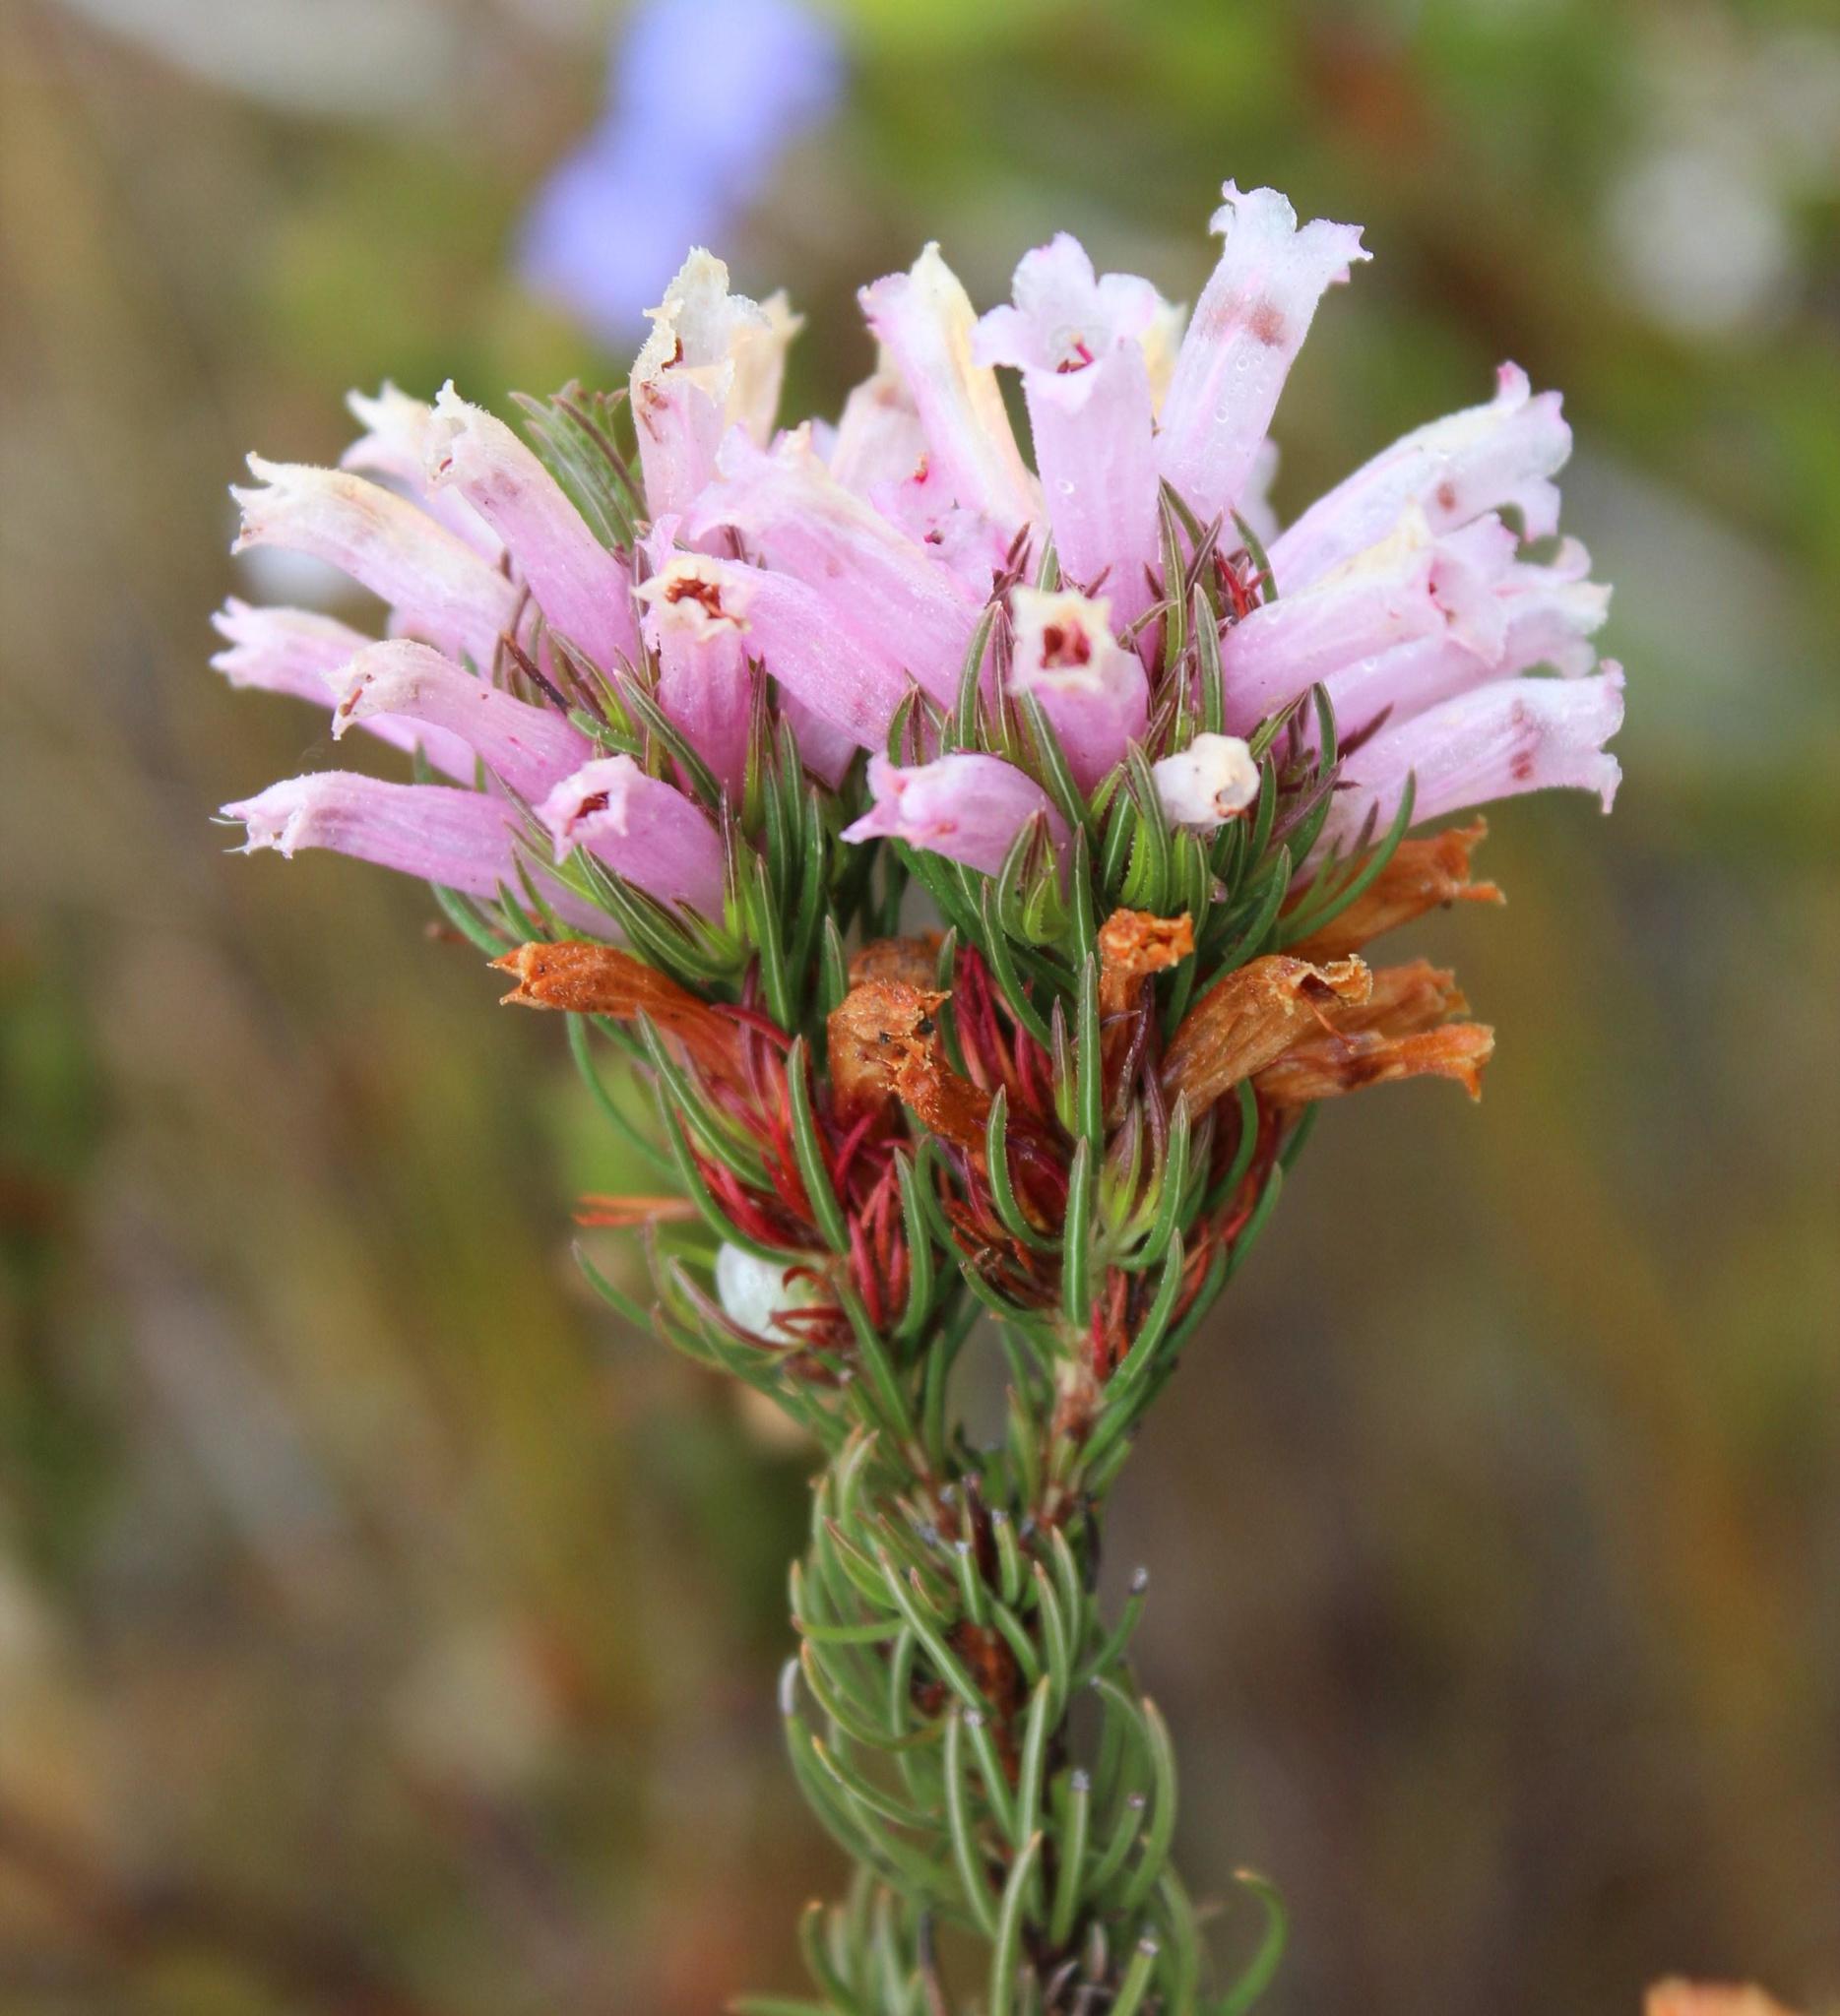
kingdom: Plantae
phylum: Tracheophyta
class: Magnoliopsida
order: Ericales
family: Ericaceae
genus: Erica
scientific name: Erica viscaria
